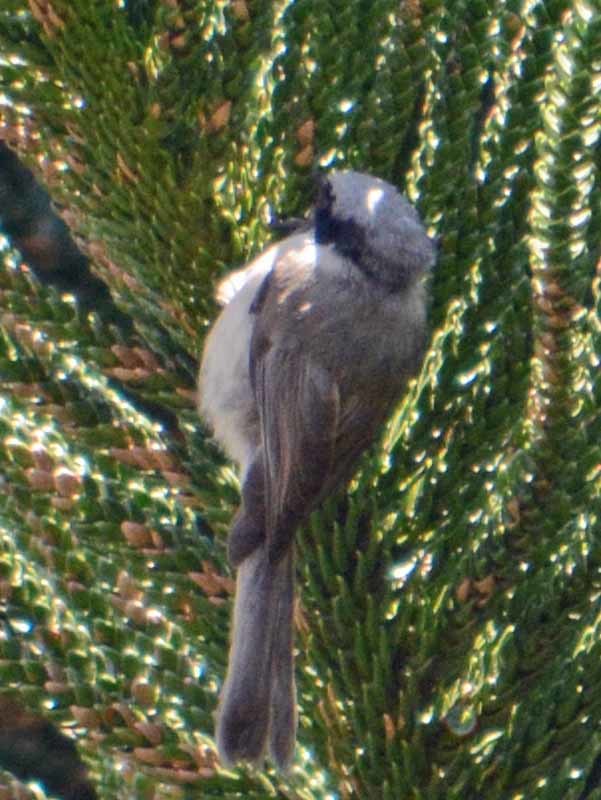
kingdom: Animalia
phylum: Chordata
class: Aves
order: Passeriformes
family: Aegithalidae
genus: Psaltriparus
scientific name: Psaltriparus minimus
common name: American bushtit
